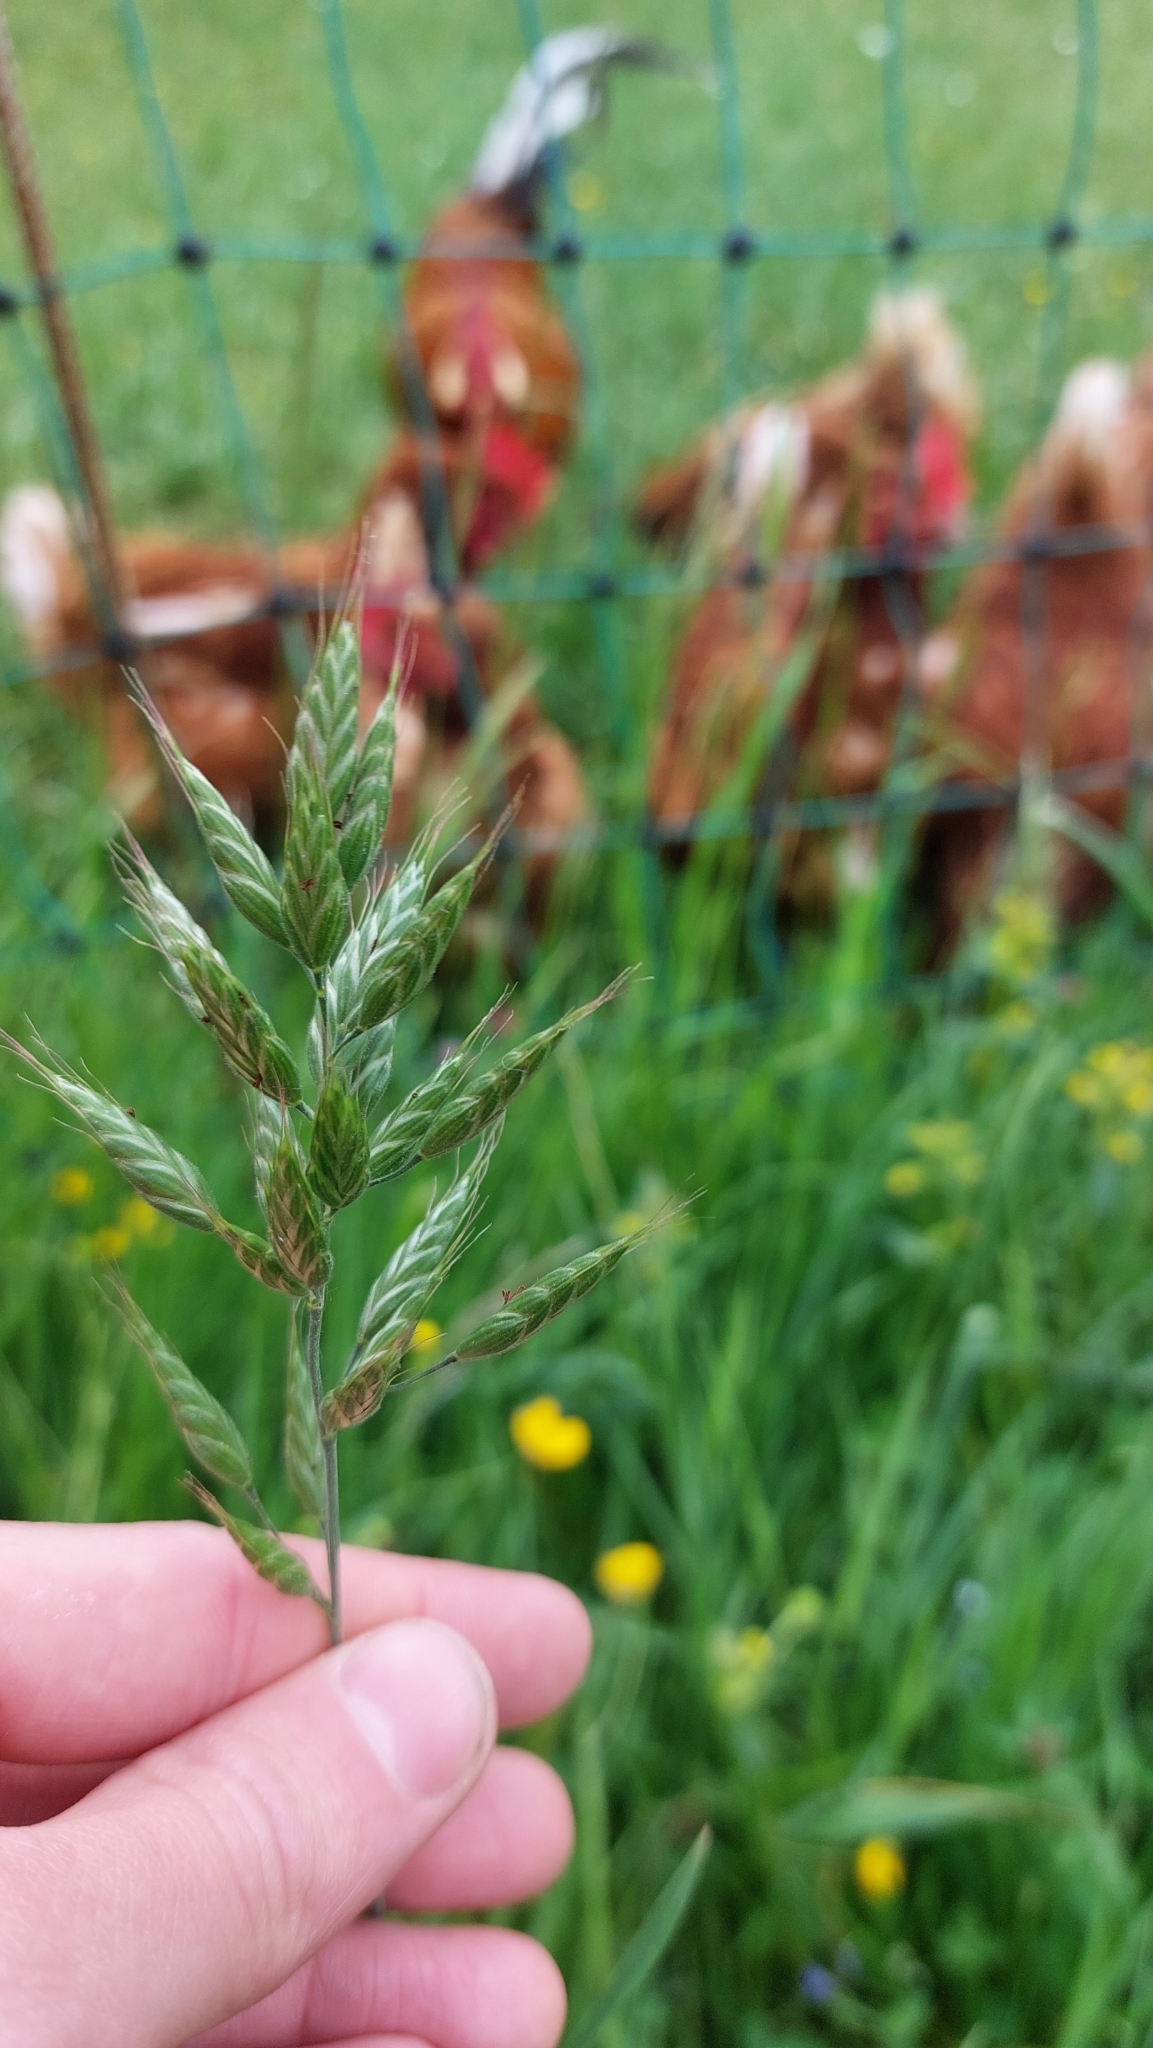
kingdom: Plantae
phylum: Tracheophyta
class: Liliopsida
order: Poales
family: Poaceae
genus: Bromus
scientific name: Bromus hordeaceus
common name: Soft brome
